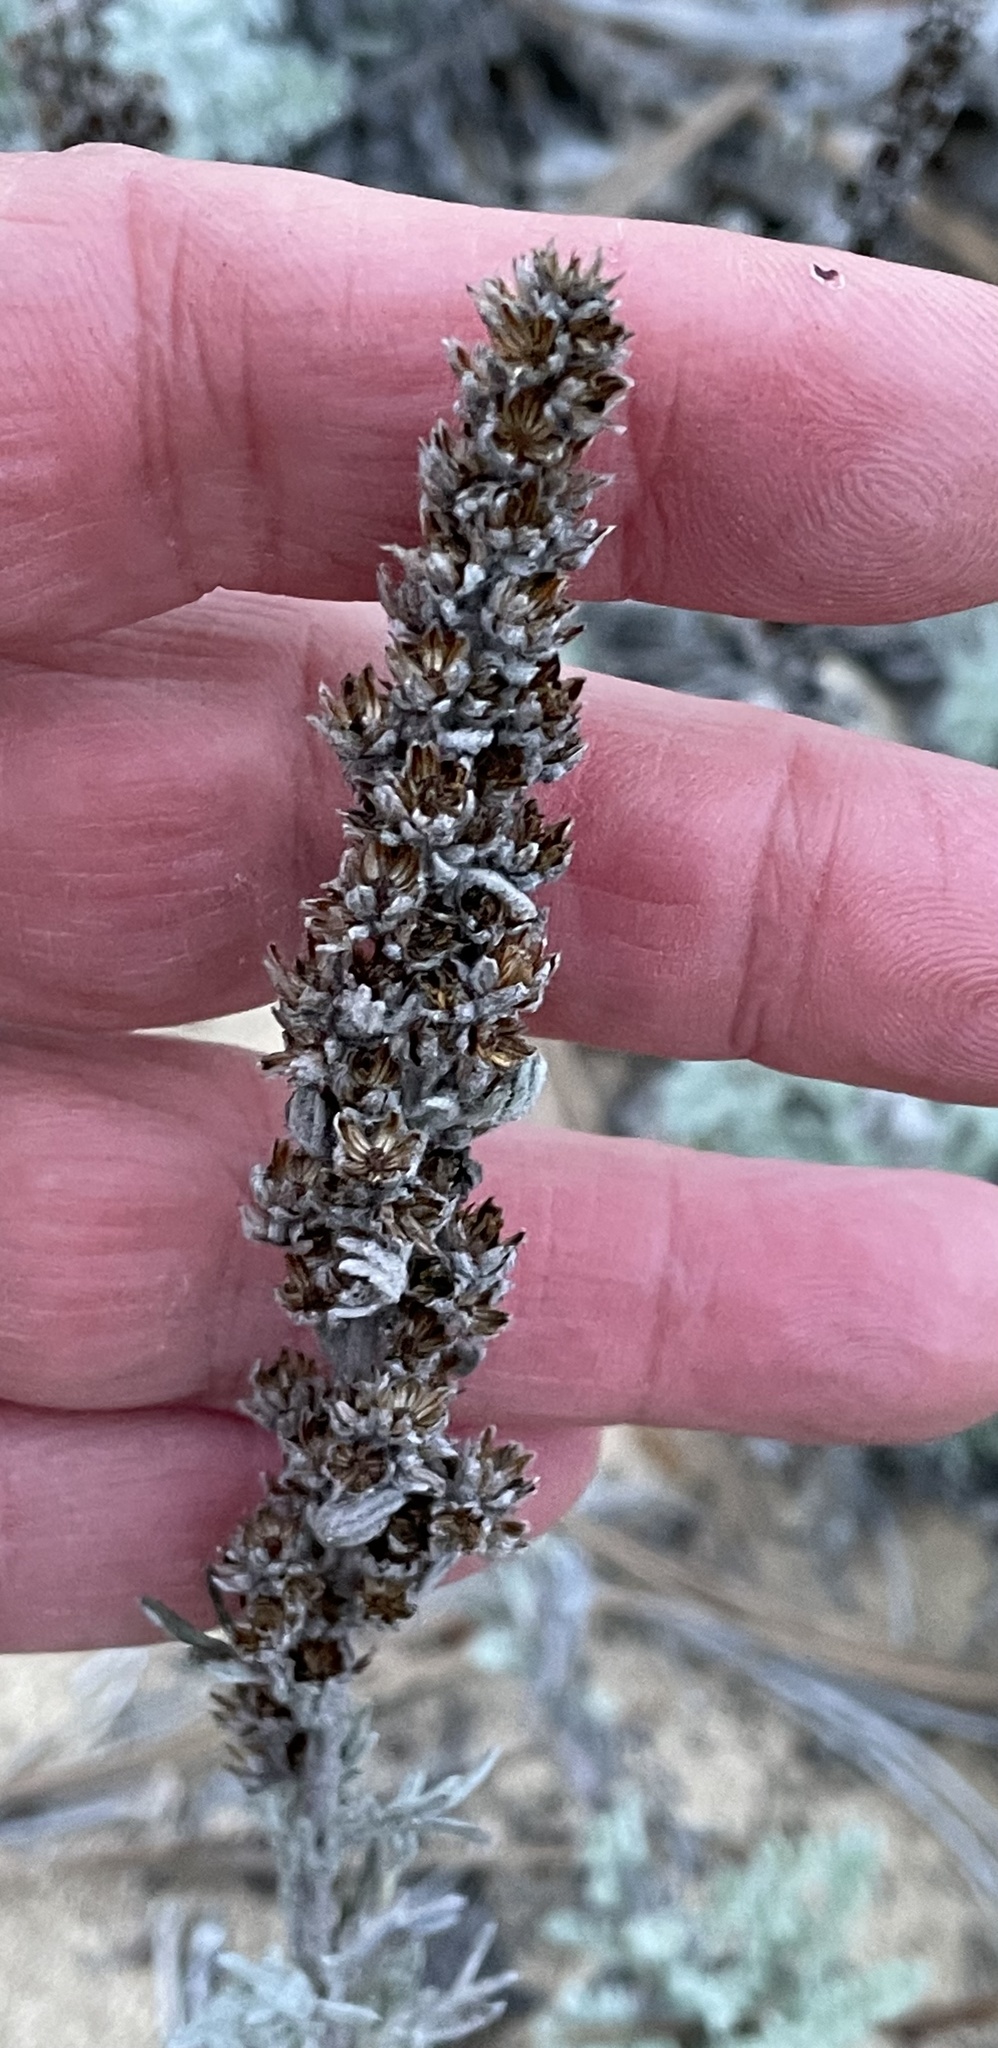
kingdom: Plantae
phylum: Tracheophyta
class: Magnoliopsida
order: Asterales
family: Asteraceae
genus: Artemisia
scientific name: Artemisia pycnocephala
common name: Coastal sagewort
